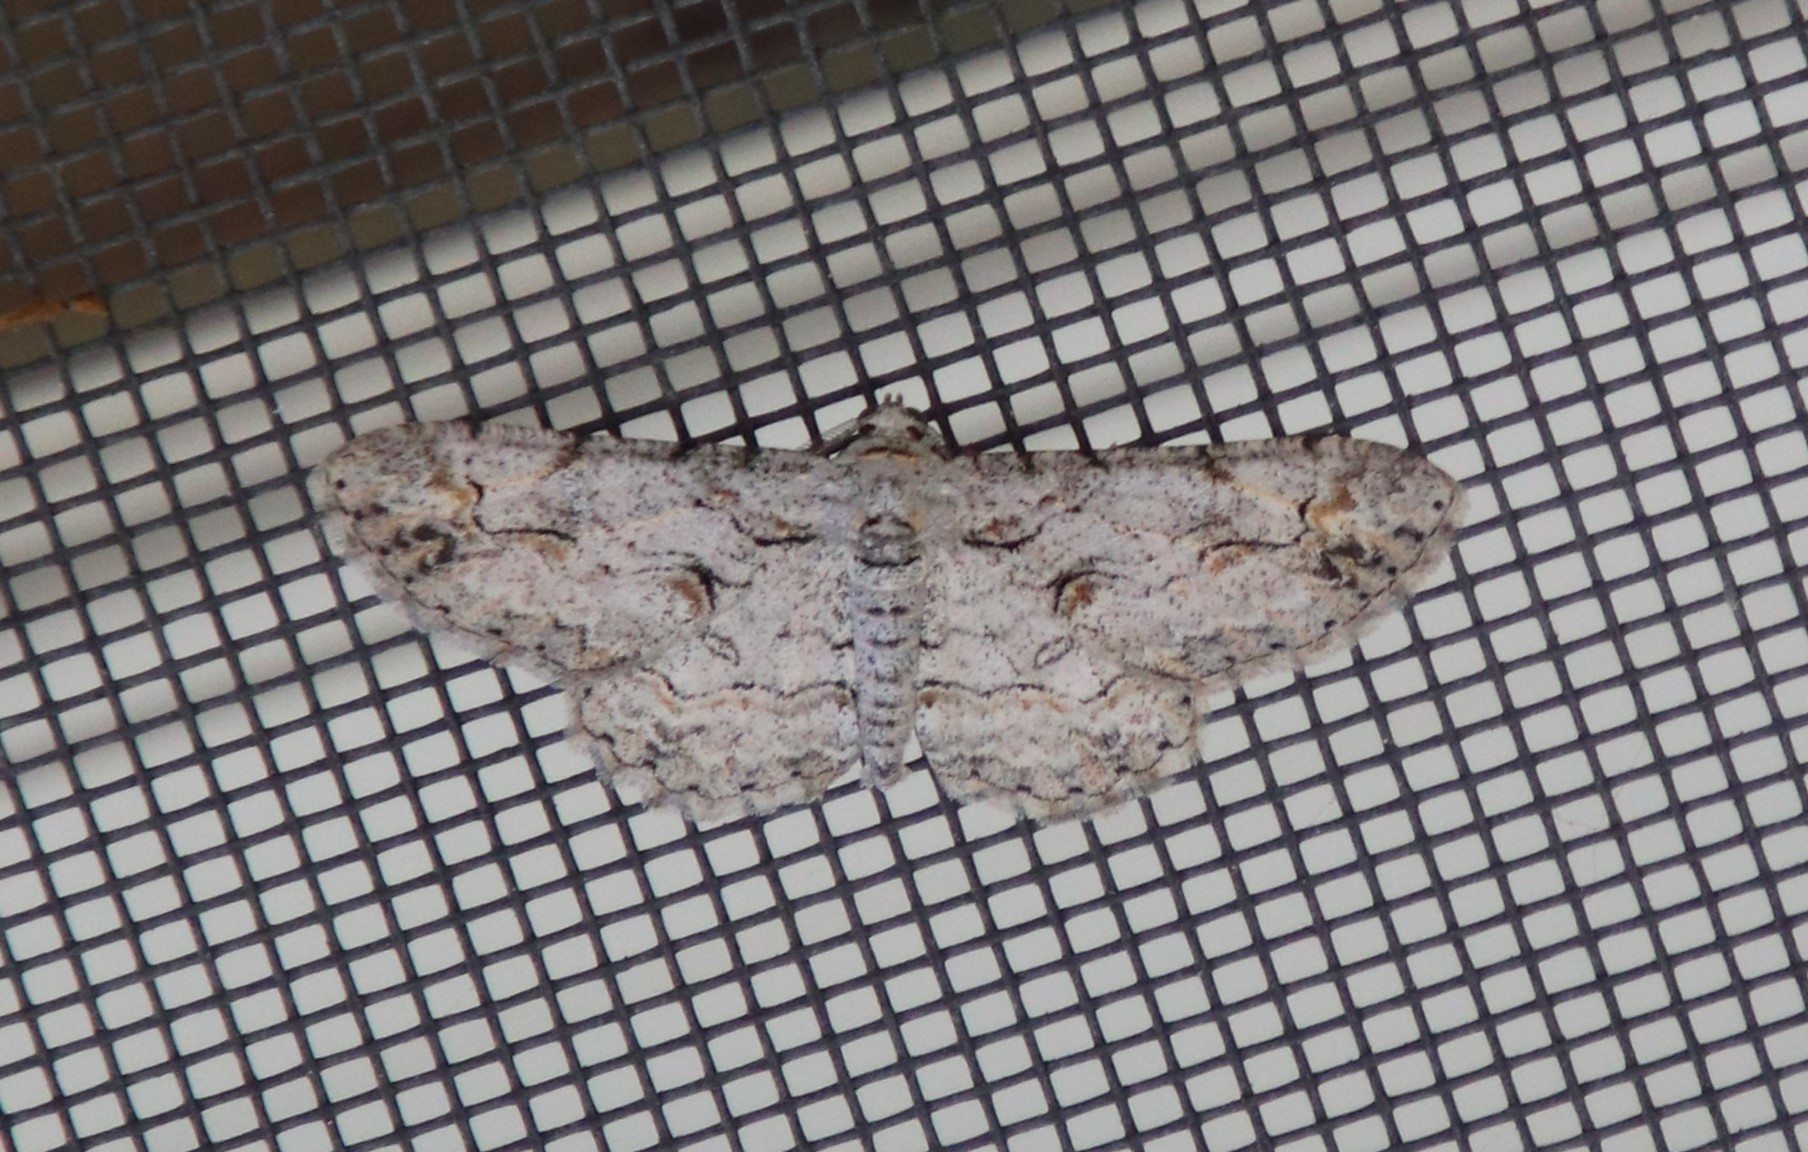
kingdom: Animalia
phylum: Arthropoda
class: Insecta
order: Lepidoptera
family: Geometridae
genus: Iridopsis
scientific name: Iridopsis fragilaria
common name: Moth
